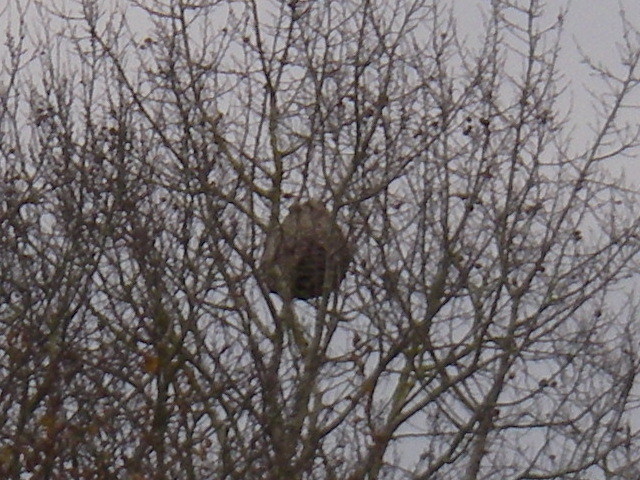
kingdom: Animalia
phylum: Arthropoda
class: Insecta
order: Hymenoptera
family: Vespidae
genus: Vespa
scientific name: Vespa velutina
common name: Asian hornet
